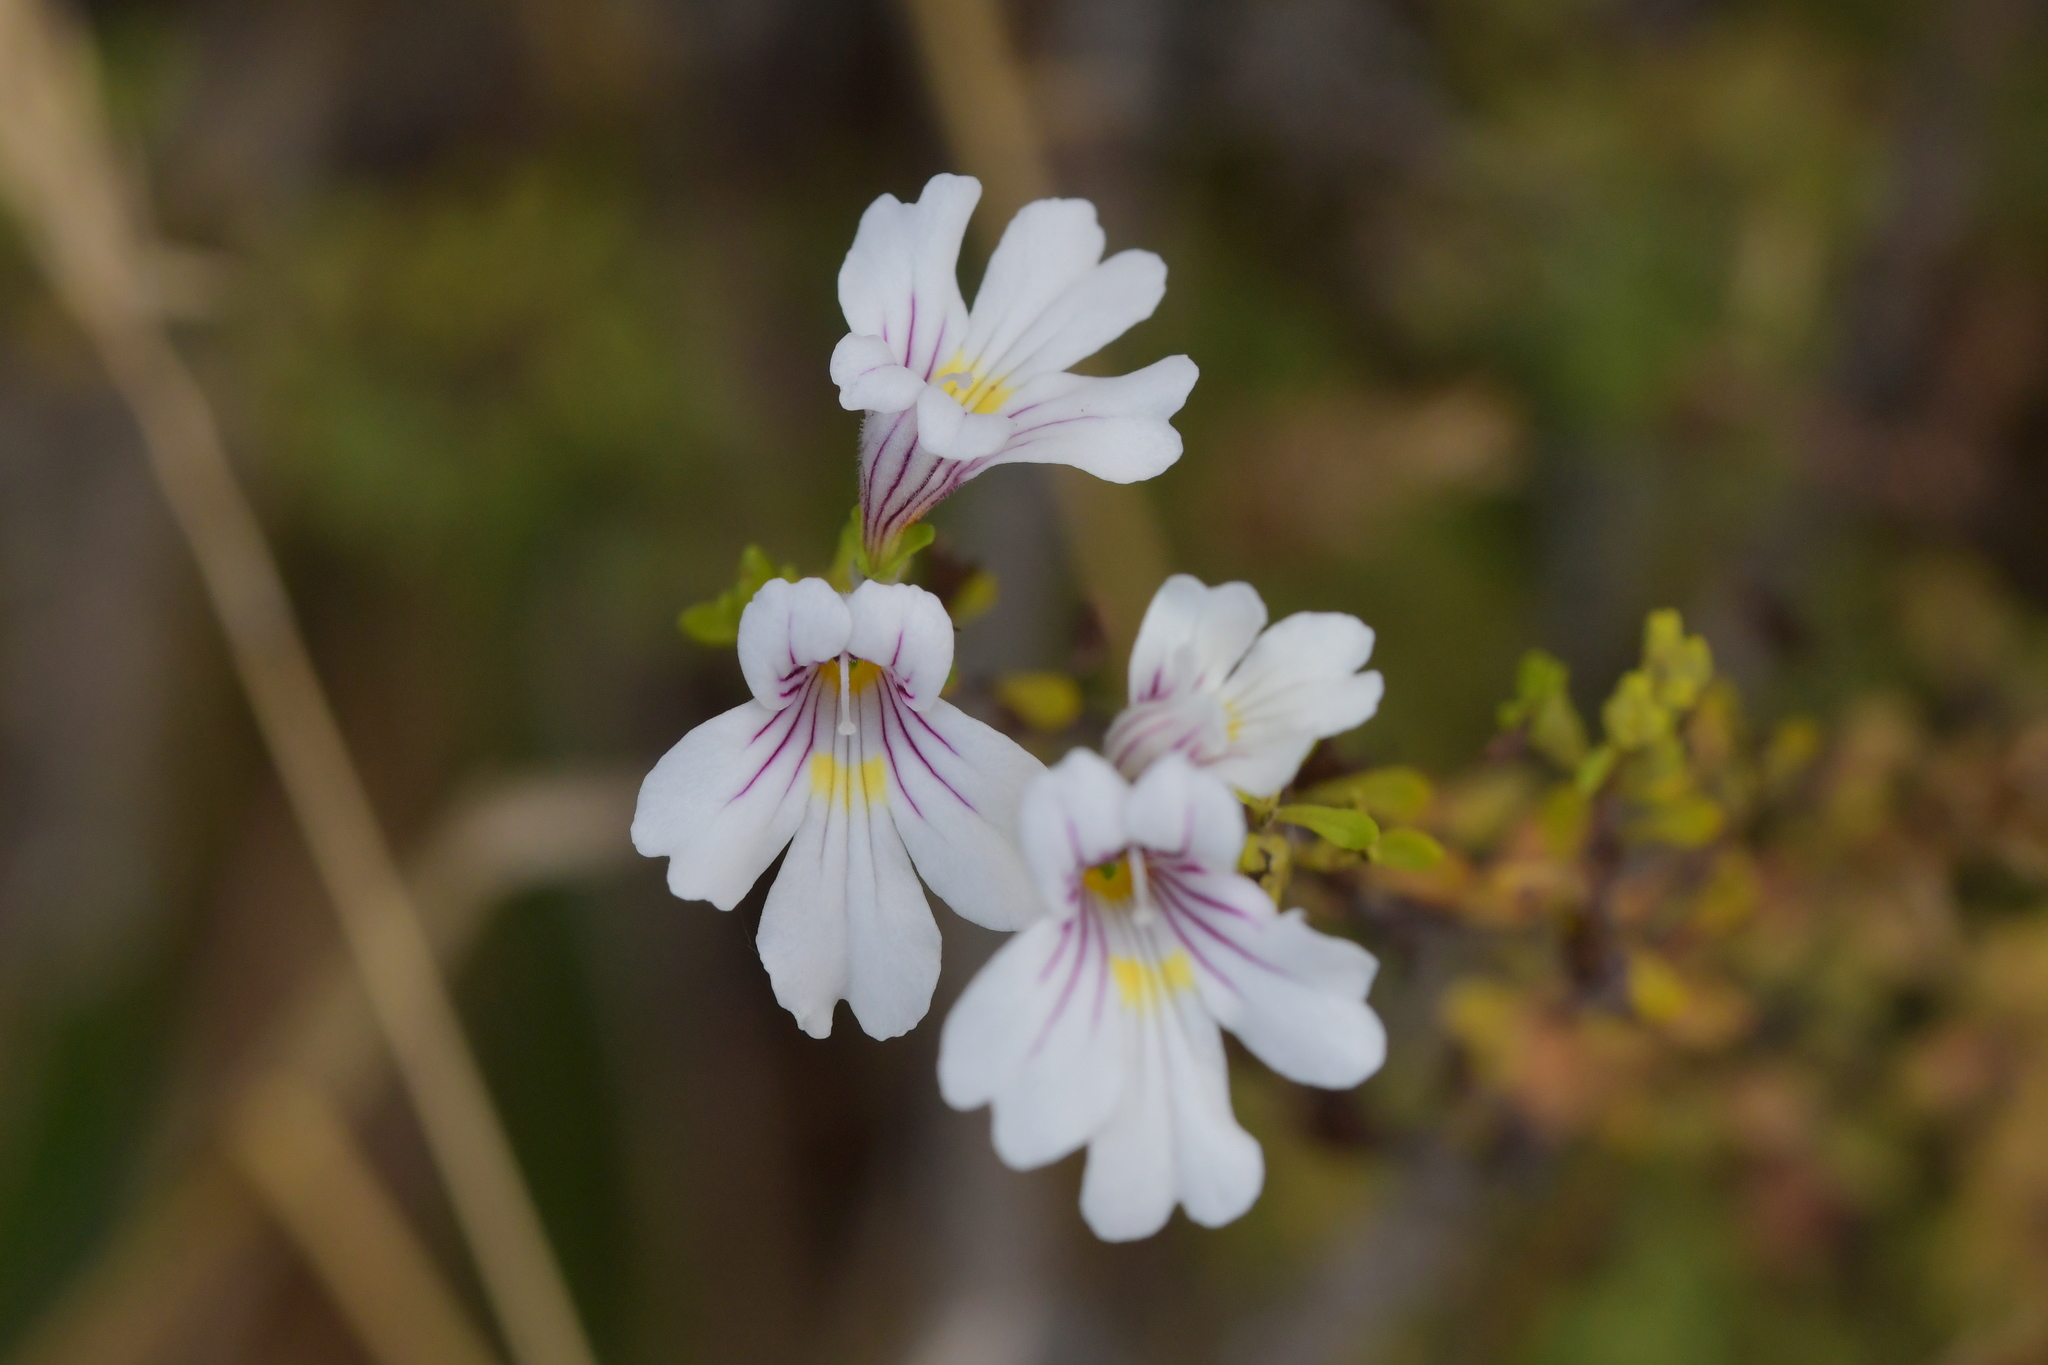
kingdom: Plantae
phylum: Tracheophyta
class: Magnoliopsida
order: Lamiales
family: Orobanchaceae
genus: Euphrasia
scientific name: Euphrasia cuneata
